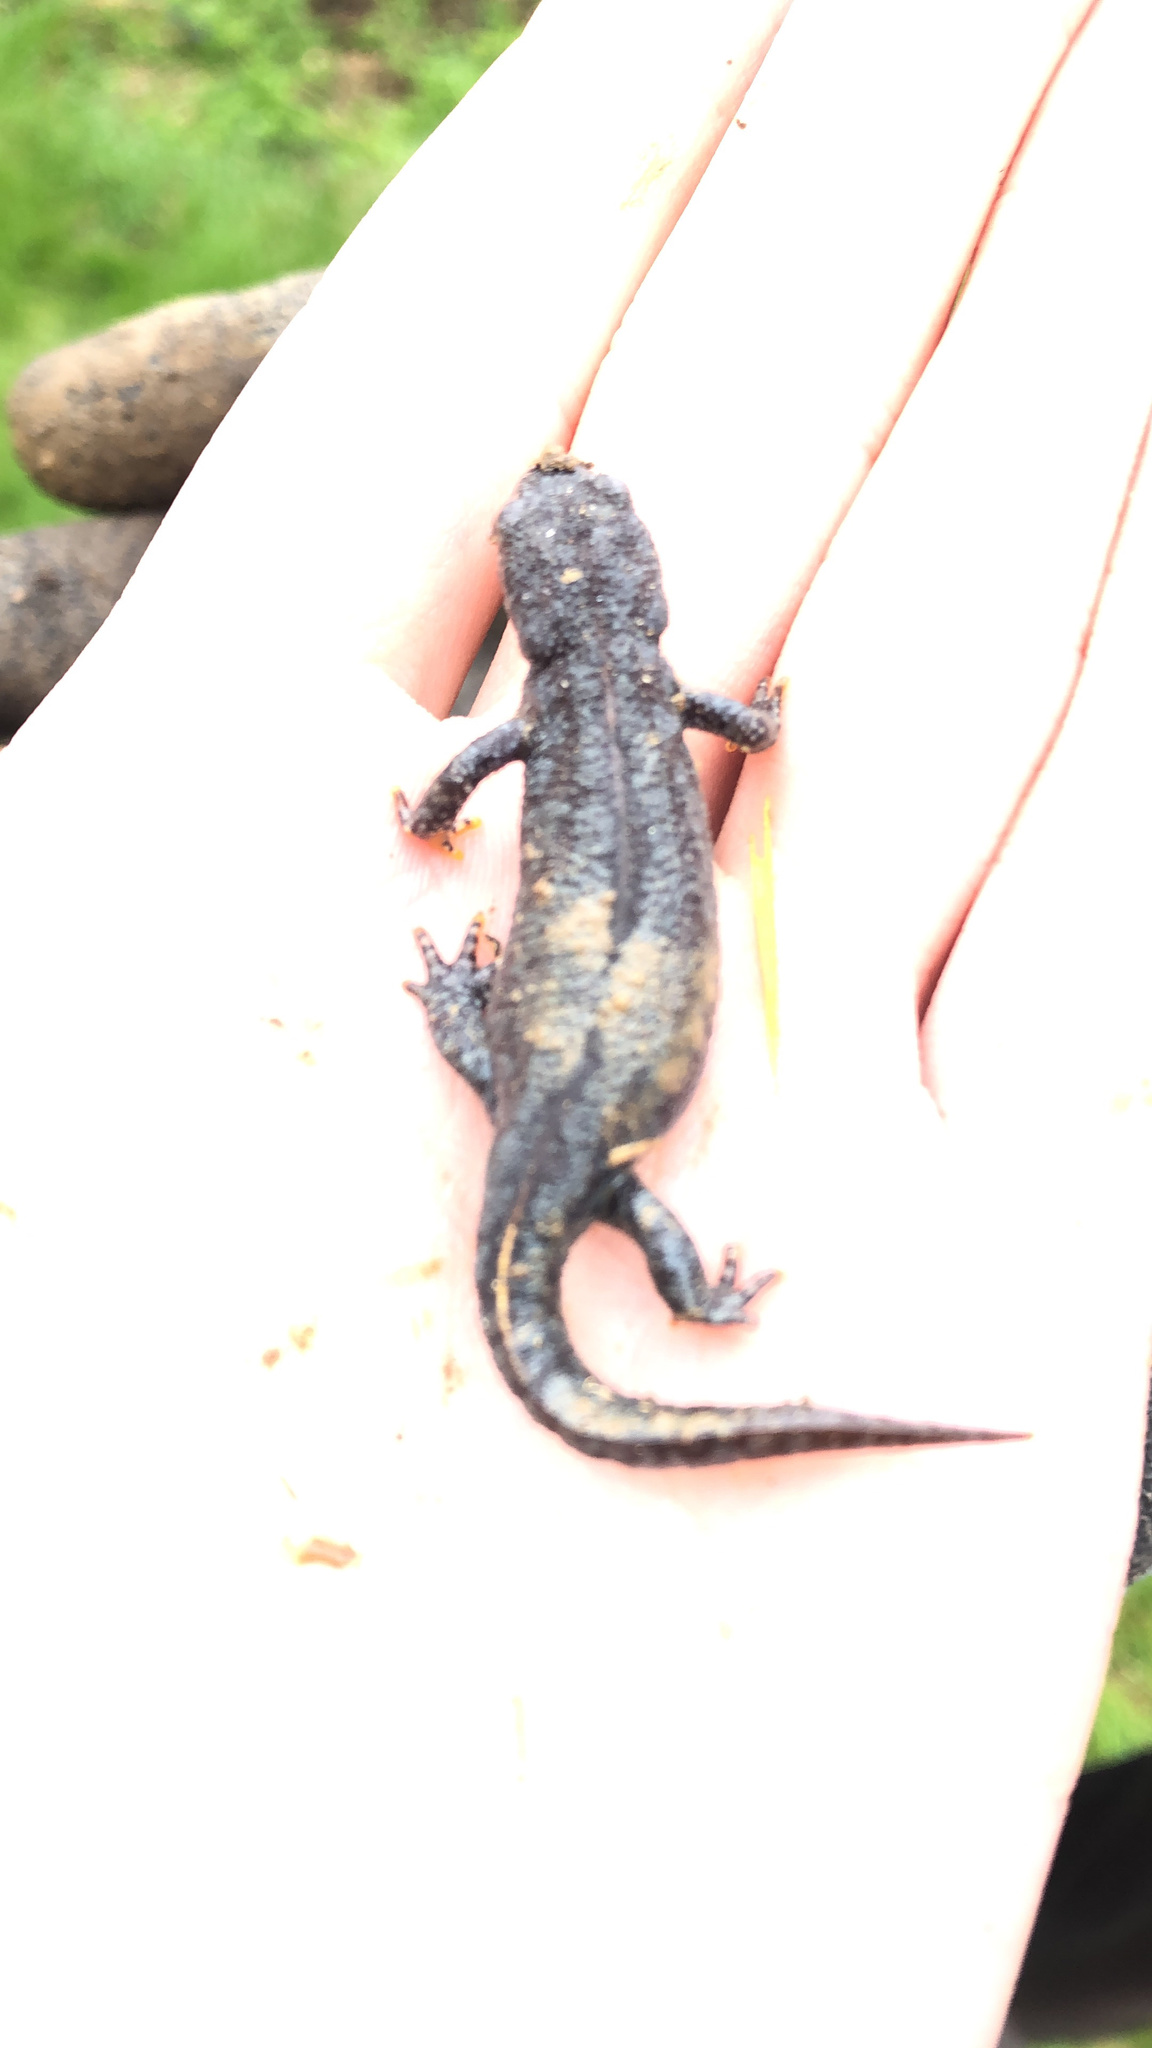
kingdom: Animalia
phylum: Chordata
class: Amphibia
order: Caudata
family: Salamandridae
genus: Ichthyosaura
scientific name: Ichthyosaura alpestris
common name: Alpine newt
